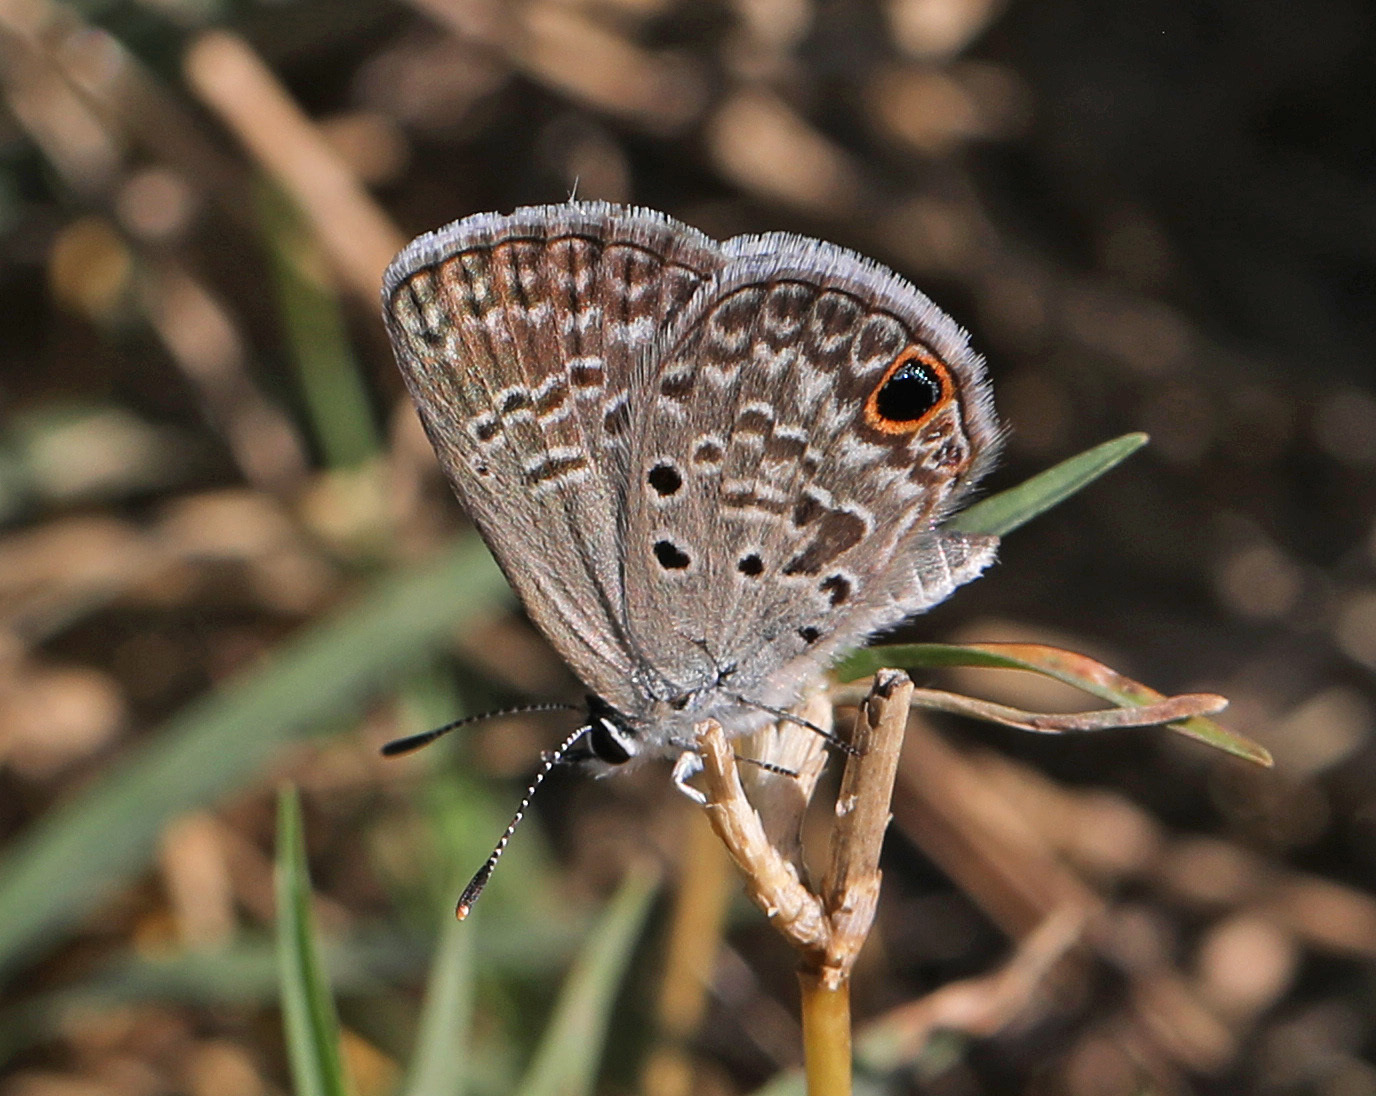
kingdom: Animalia
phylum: Arthropoda
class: Insecta
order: Lepidoptera
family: Lycaenidae
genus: Hemiargus
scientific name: Hemiargus ceraunus
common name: Ceraunus blue
